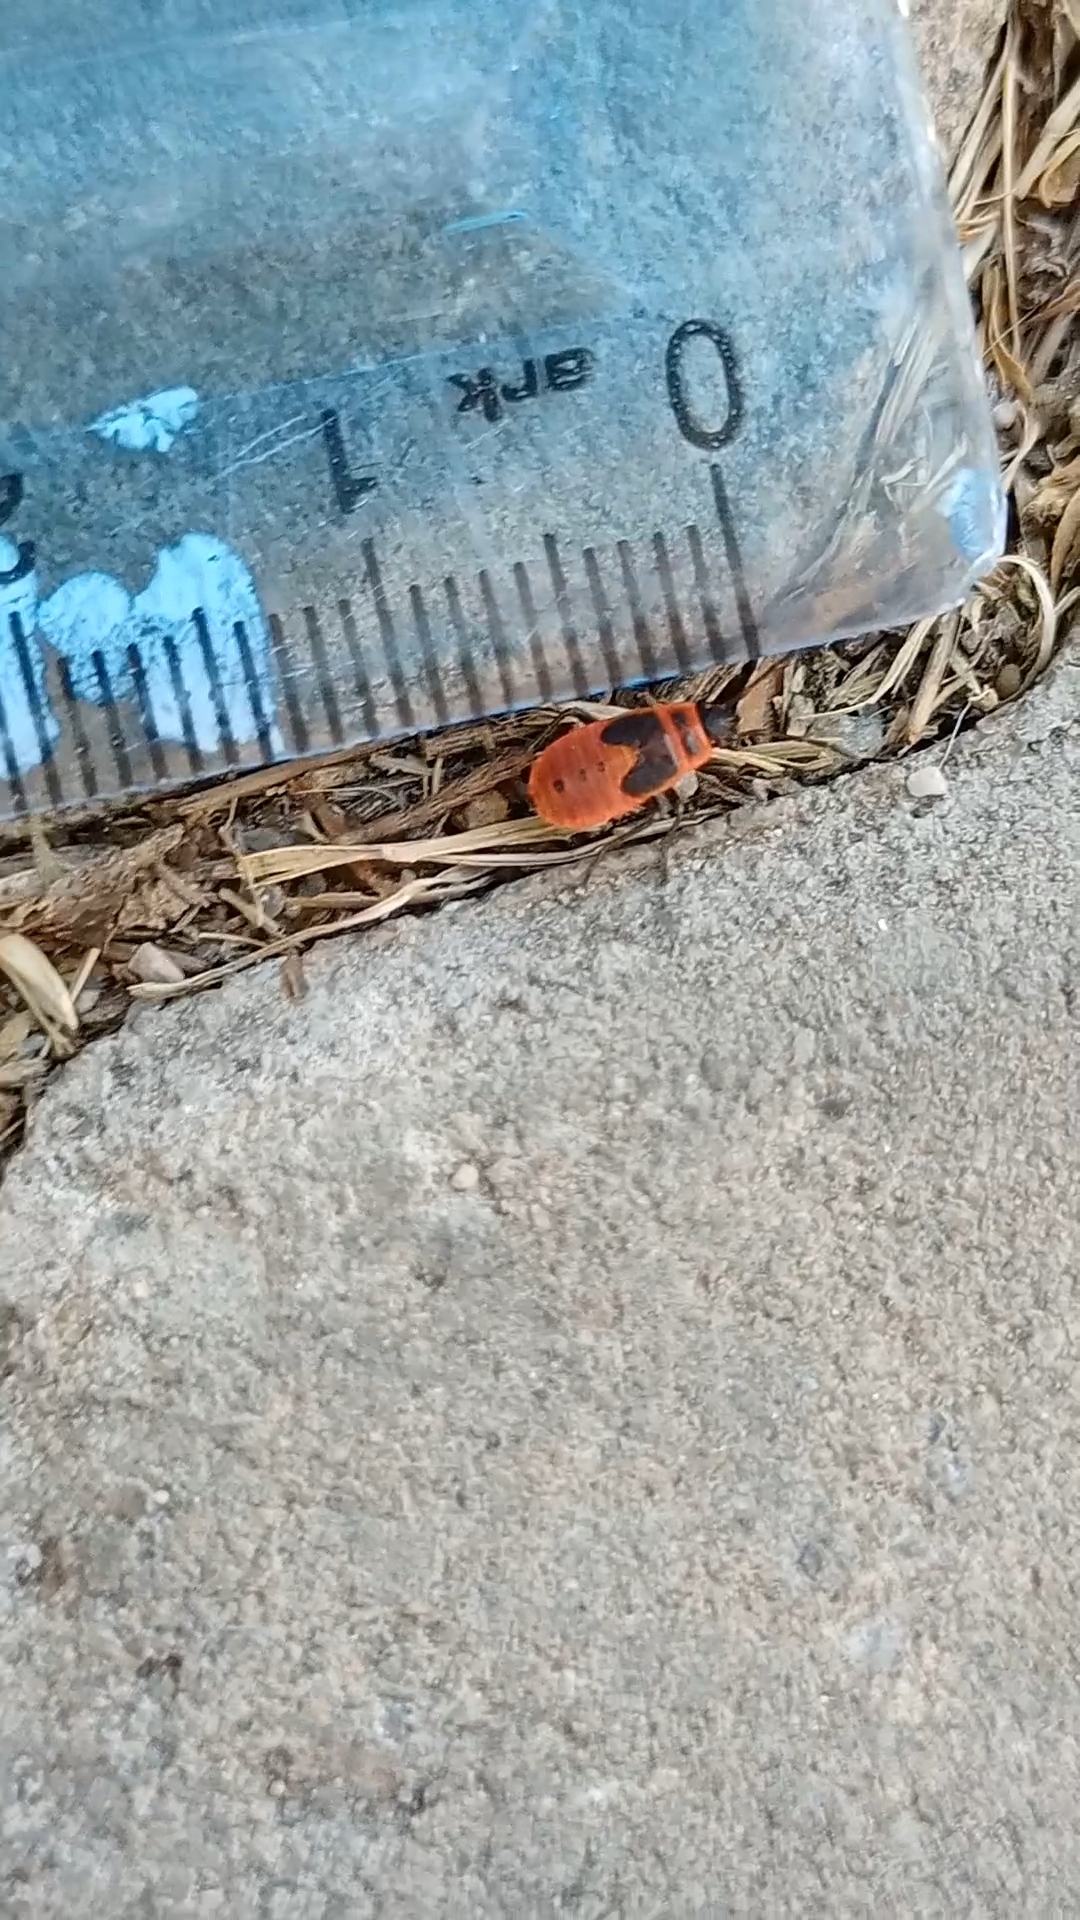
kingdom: Animalia
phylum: Arthropoda
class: Insecta
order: Hemiptera
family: Pyrrhocoridae
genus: Pyrrhocoris
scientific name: Pyrrhocoris apterus
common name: Firebug
